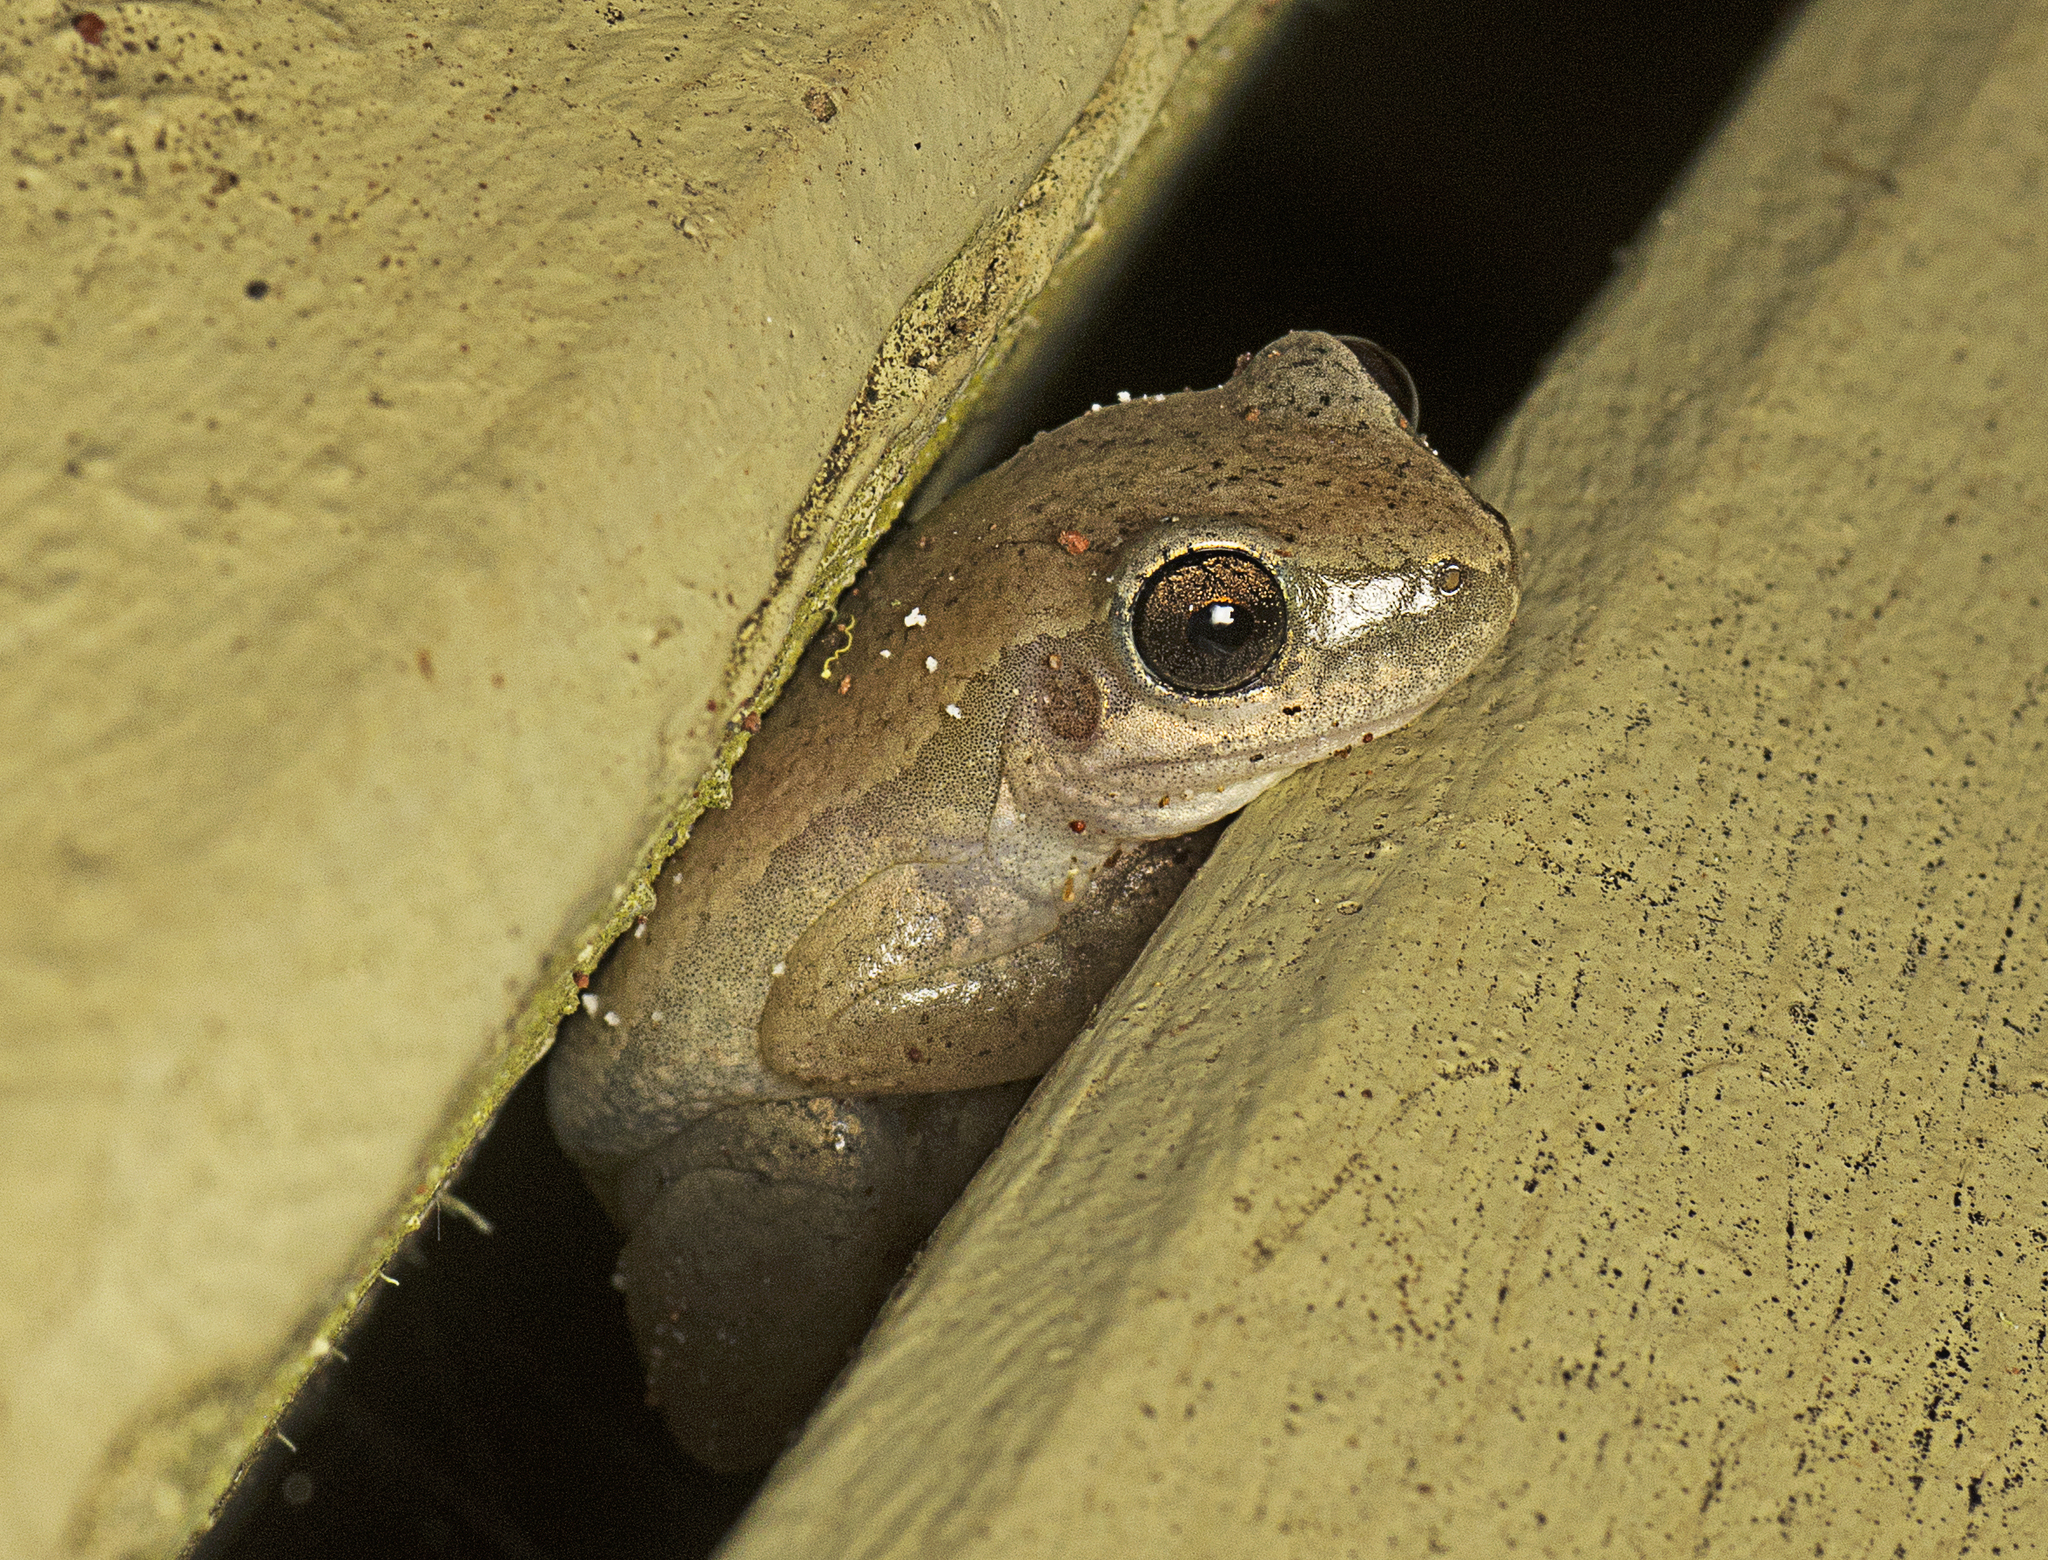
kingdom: Animalia
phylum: Chordata
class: Amphibia
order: Anura
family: Pelodryadidae
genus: Litoria
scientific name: Litoria rubella
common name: Desert tree frog
